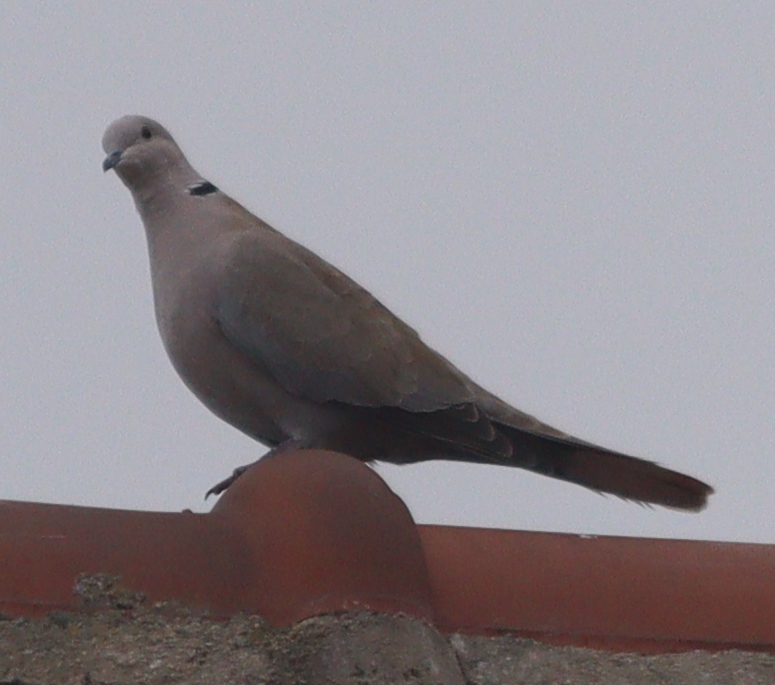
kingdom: Animalia
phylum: Chordata
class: Aves
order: Columbiformes
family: Columbidae
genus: Streptopelia
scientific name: Streptopelia decaocto
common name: Eurasian collared dove
